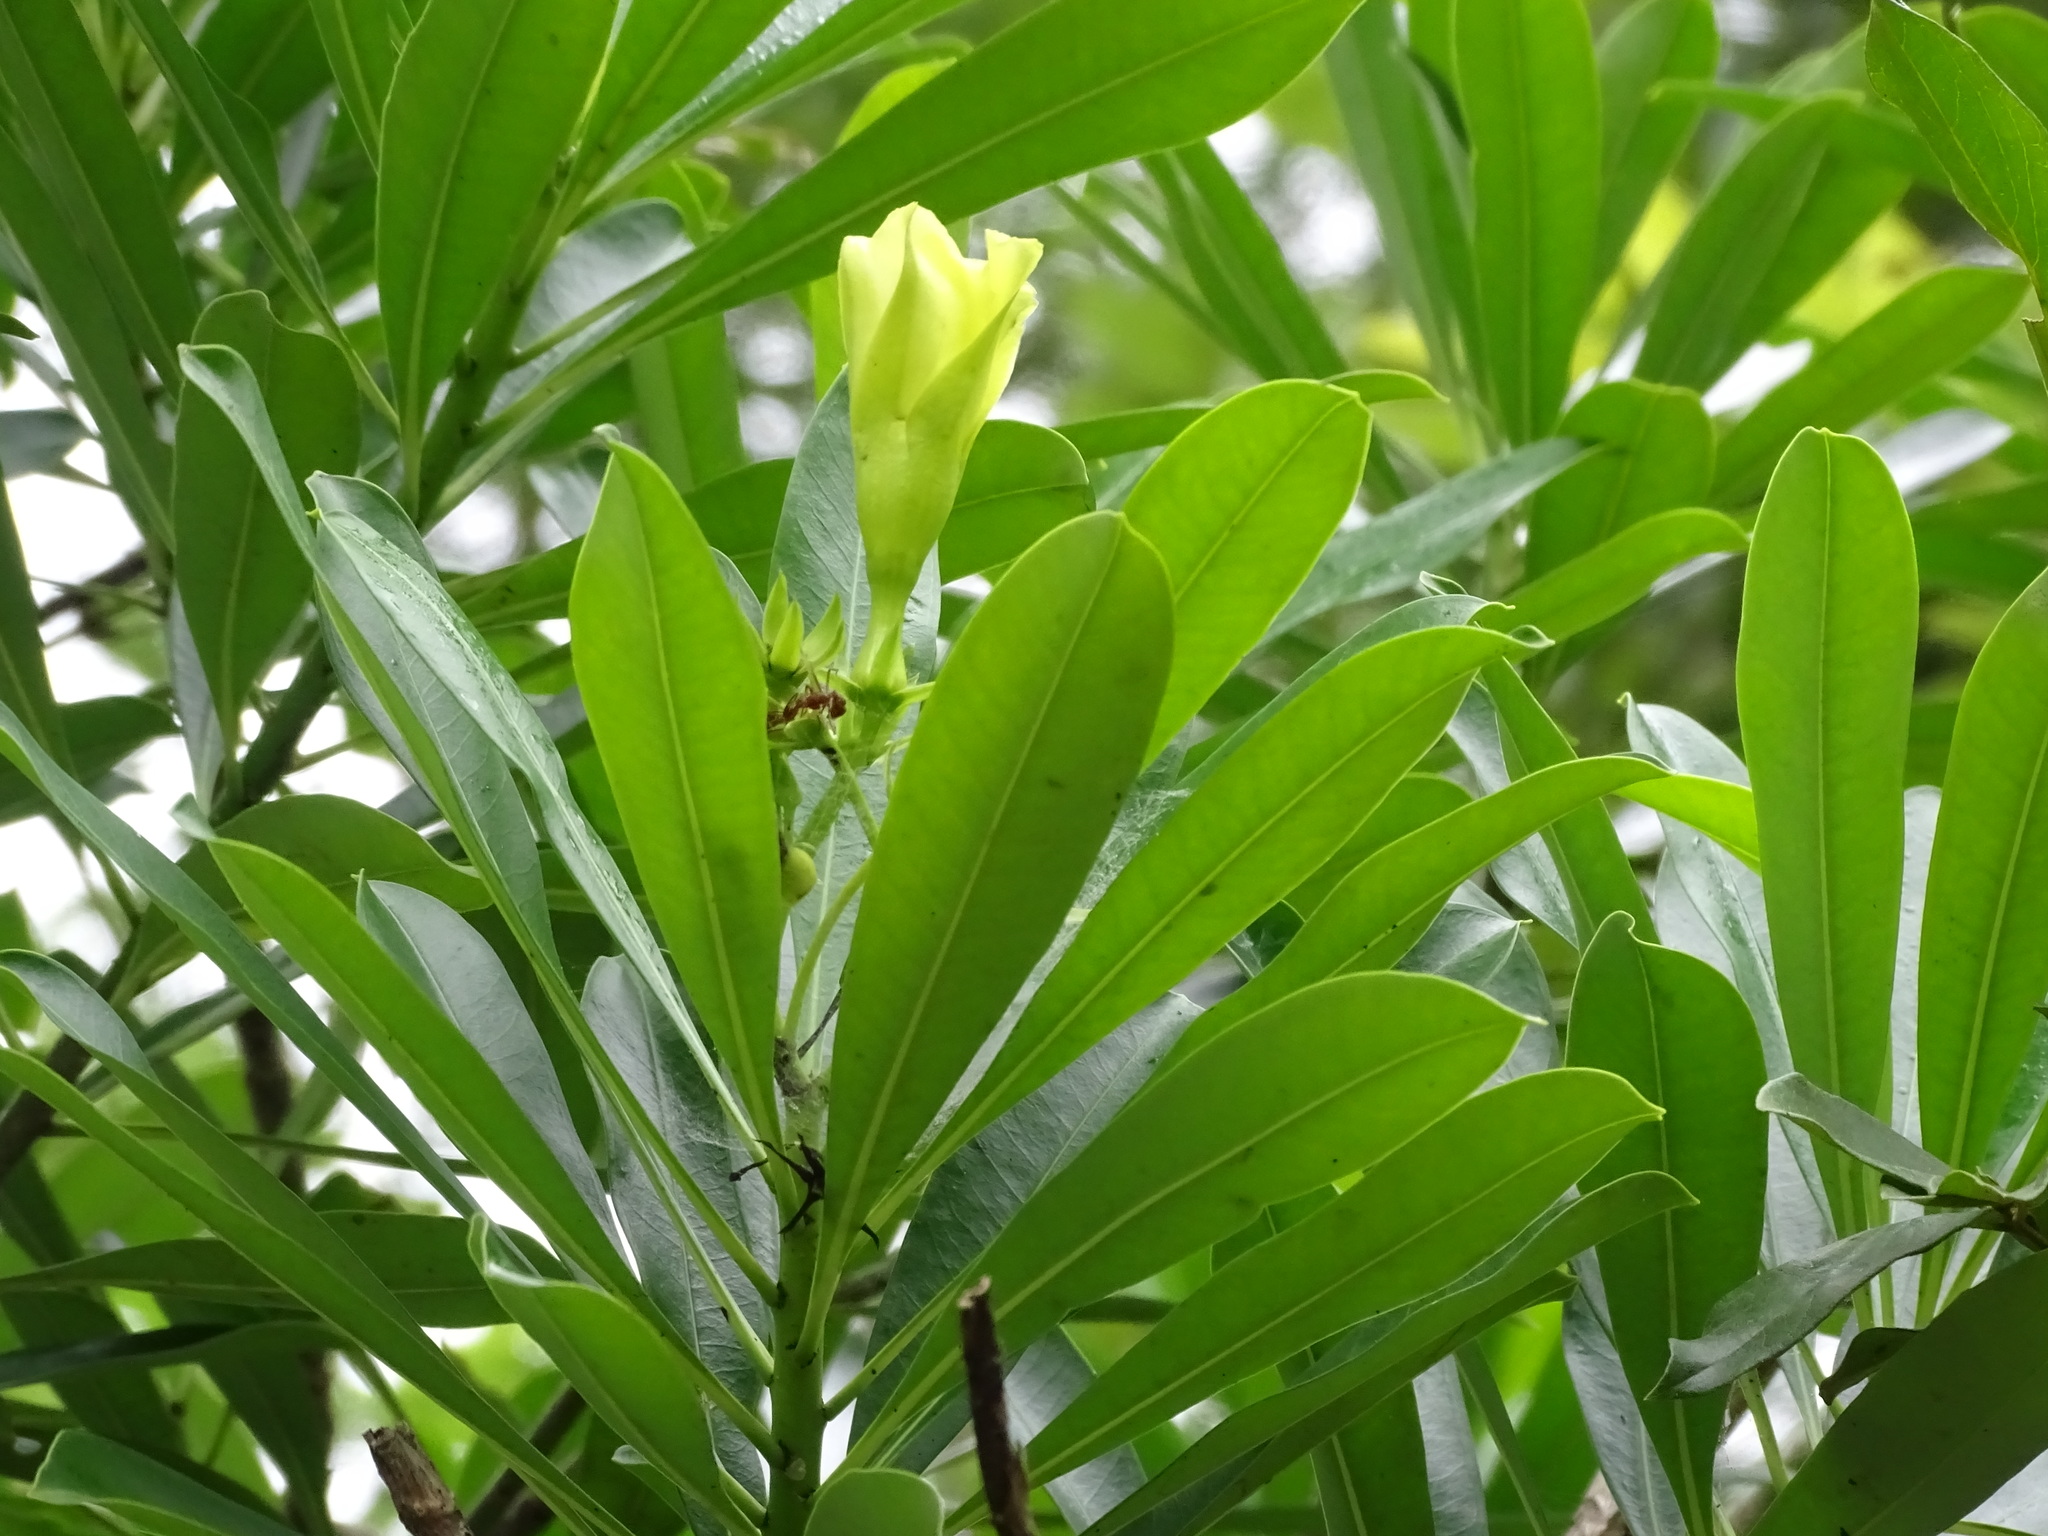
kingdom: Plantae
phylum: Tracheophyta
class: Magnoliopsida
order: Gentianales
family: Apocynaceae
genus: Cascabela
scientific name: Cascabela gaumeri
